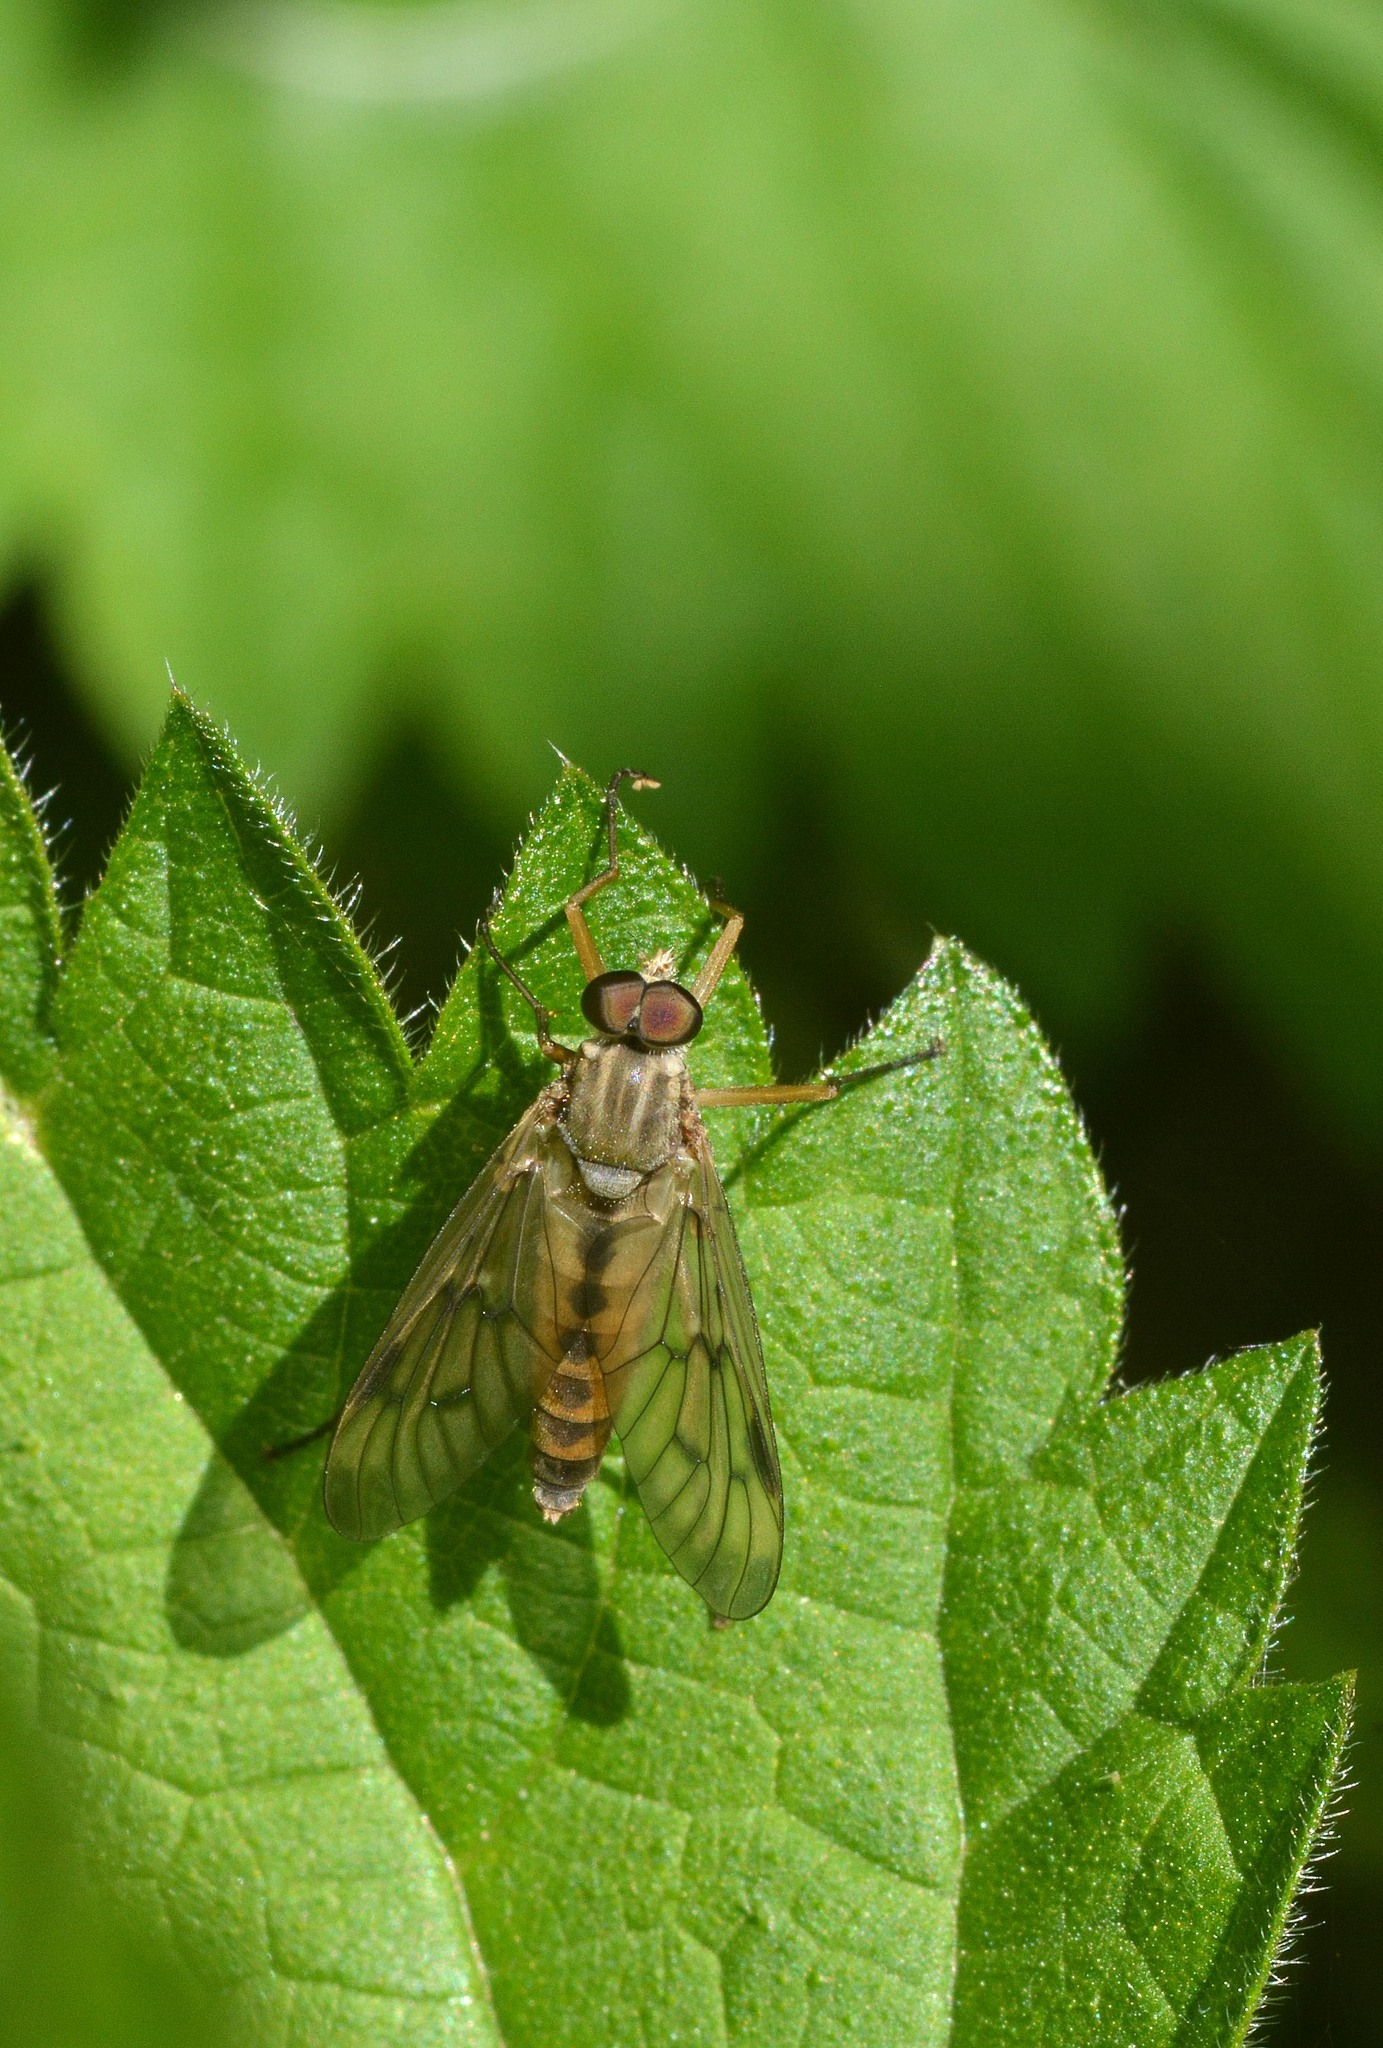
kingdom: Animalia
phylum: Arthropoda
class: Insecta
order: Diptera
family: Rhagionidae
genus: Rhagio
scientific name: Rhagio scolopacea
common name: Downlooker snipefly
